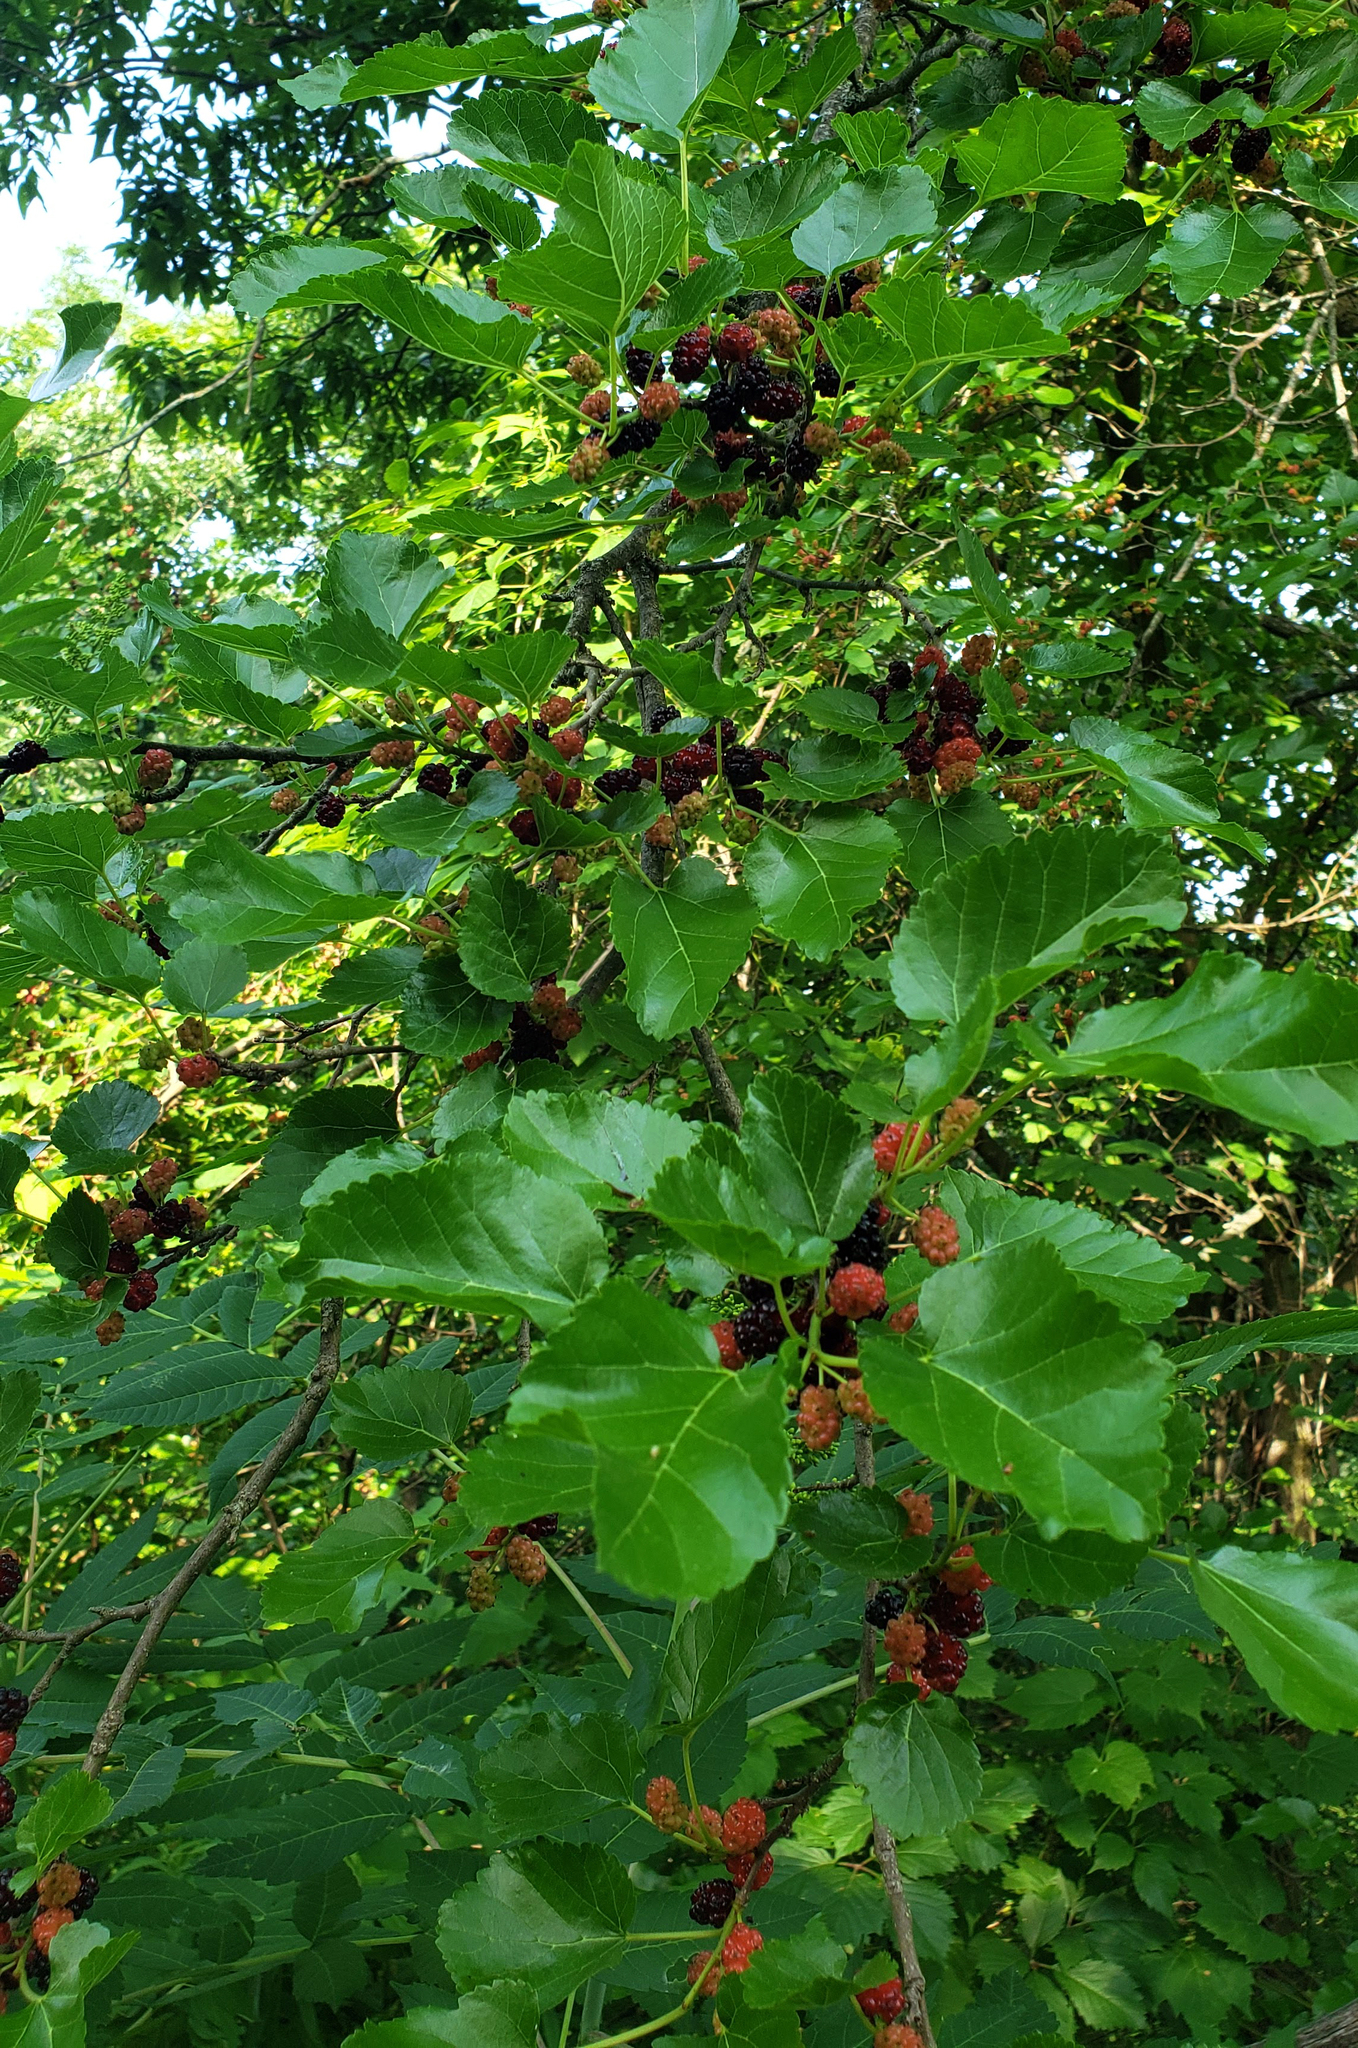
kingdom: Plantae
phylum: Tracheophyta
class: Magnoliopsida
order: Rosales
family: Moraceae
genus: Morus
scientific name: Morus alba
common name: White mulberry
